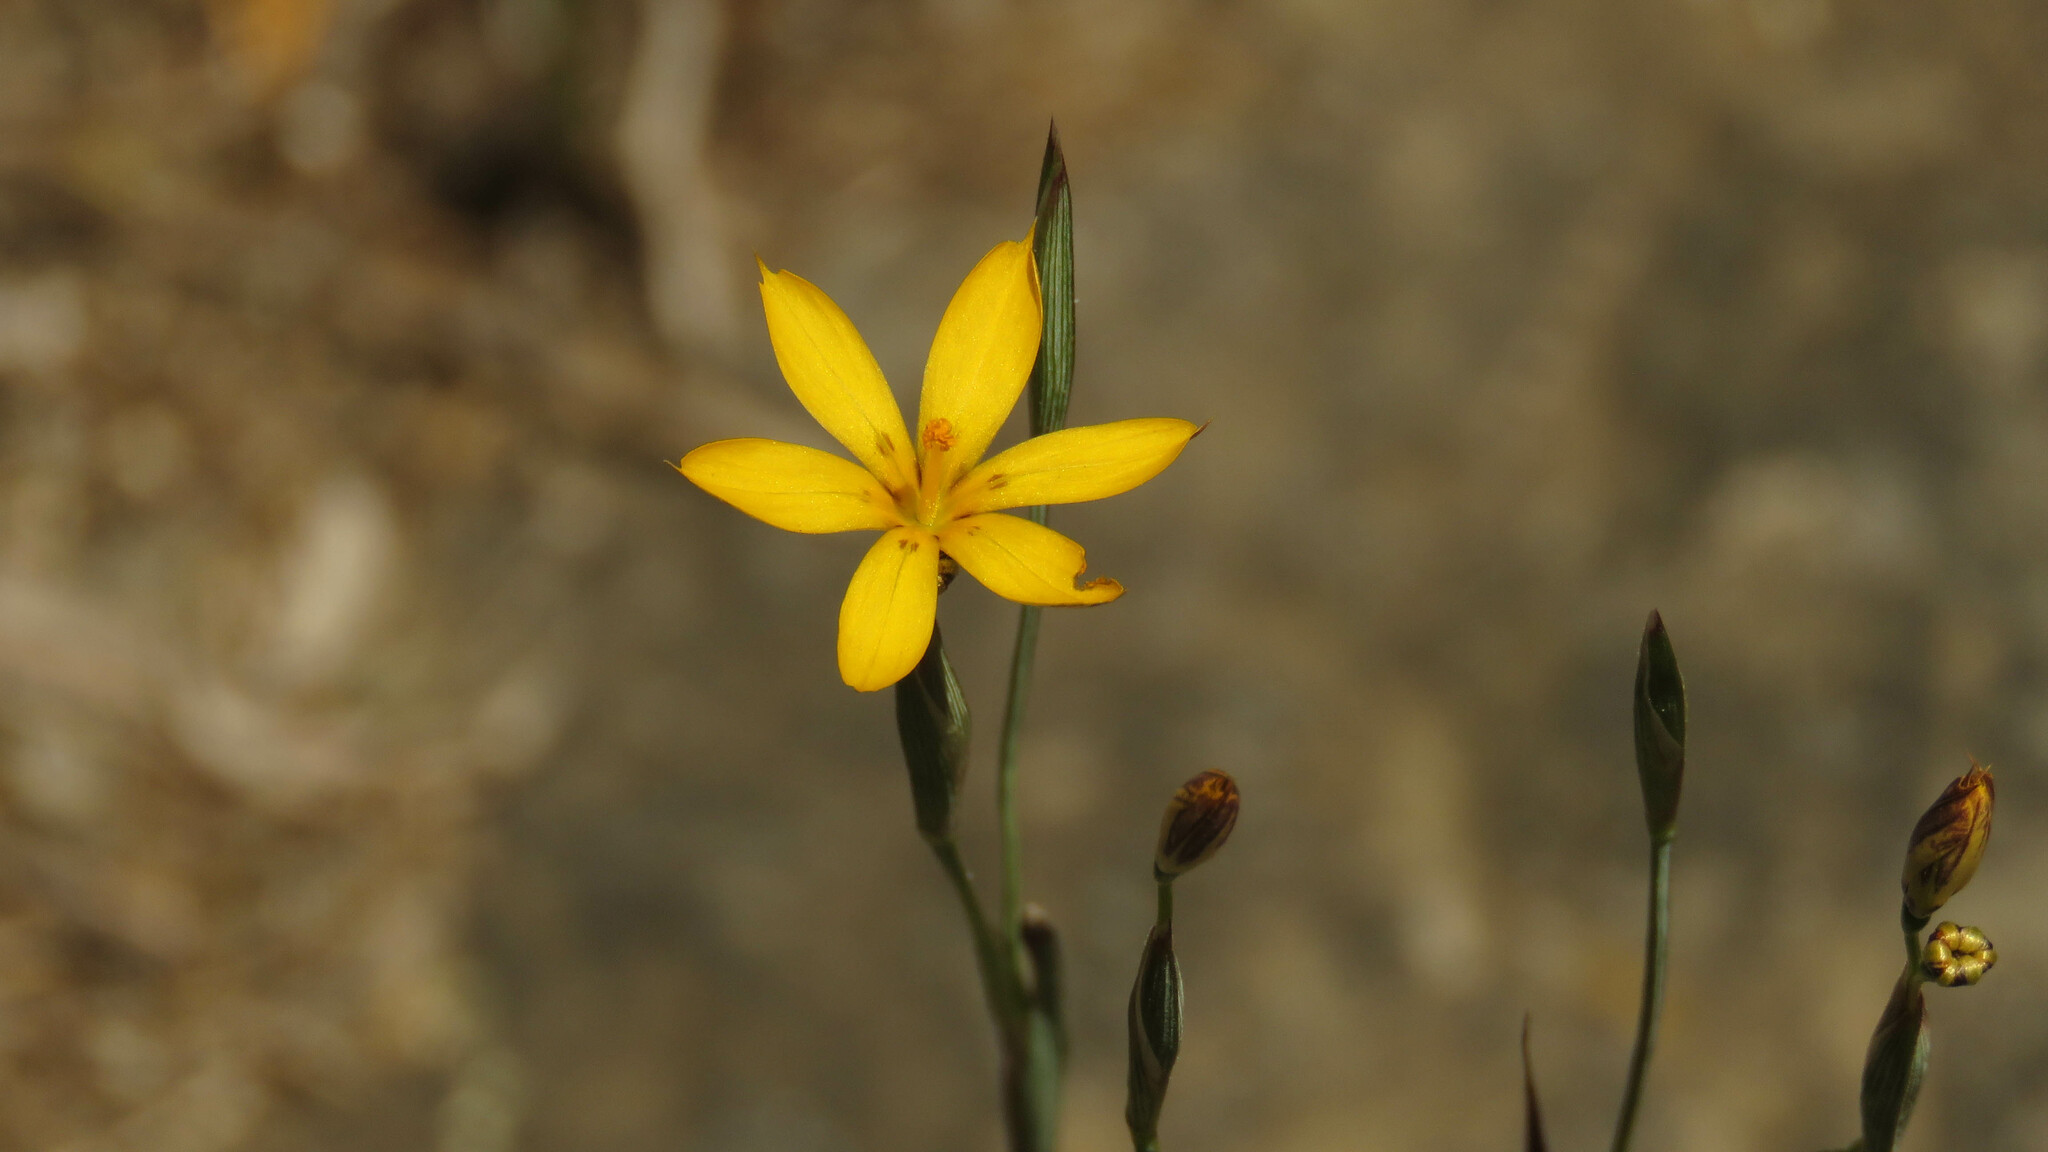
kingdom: Plantae
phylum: Tracheophyta
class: Liliopsida
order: Asparagales
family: Iridaceae
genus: Sisyrinchium
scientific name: Sisyrinchium patagonicum
